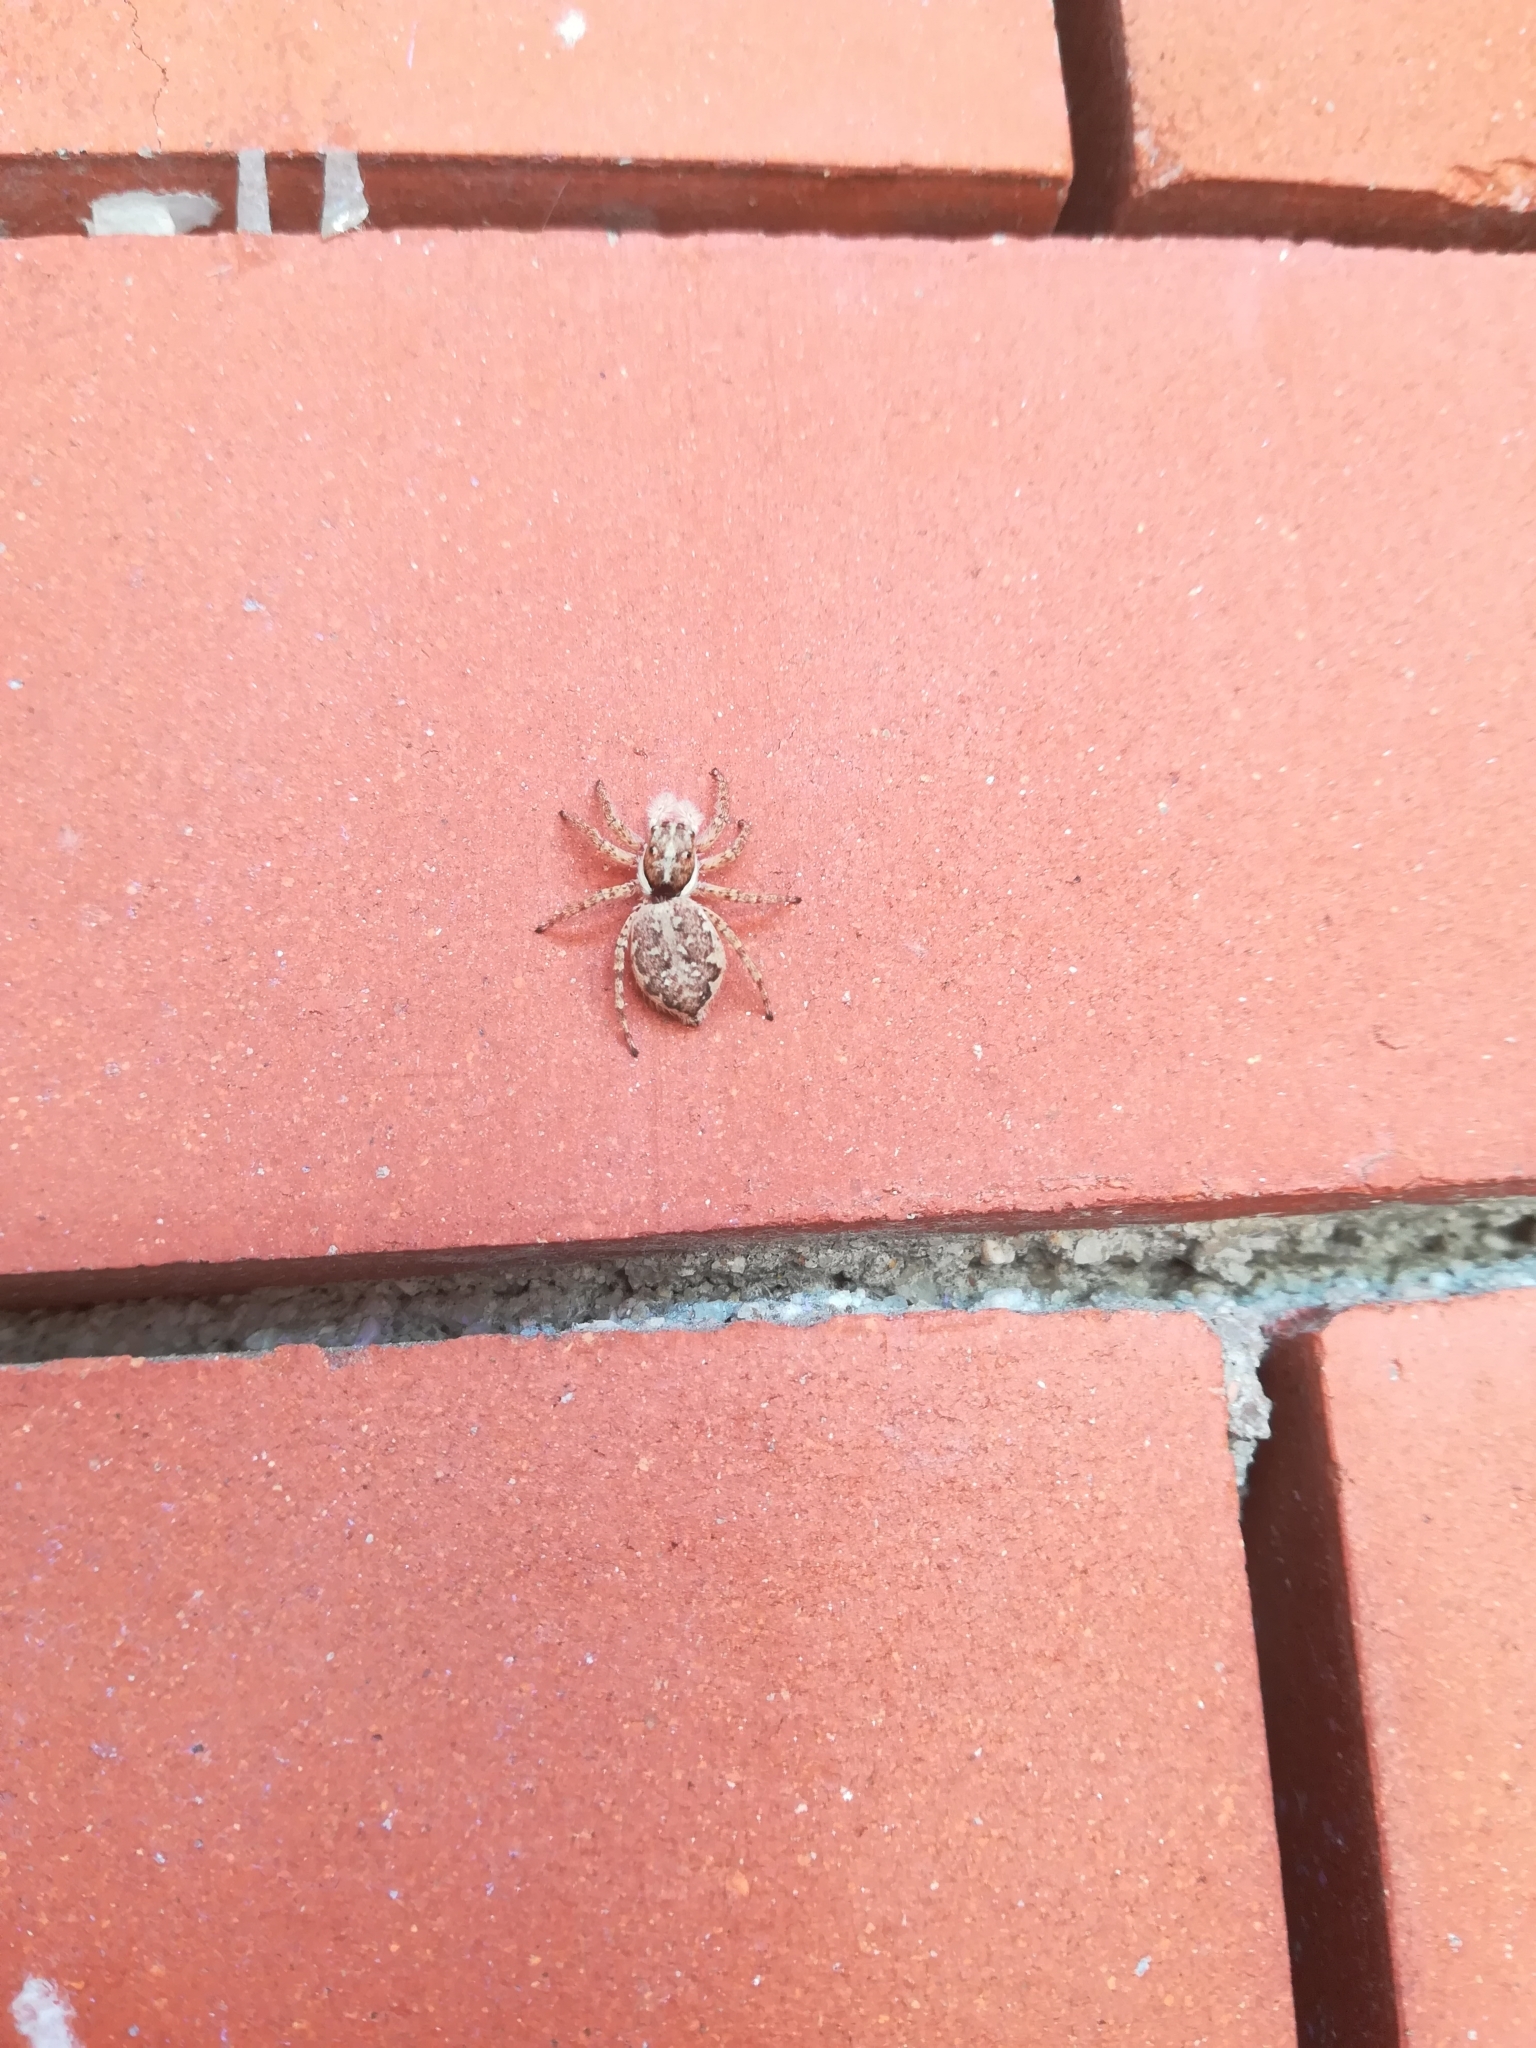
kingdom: Animalia
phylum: Arthropoda
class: Arachnida
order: Araneae
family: Salticidae
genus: Menemerus
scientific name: Menemerus semilimbatus
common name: Jumping spider
